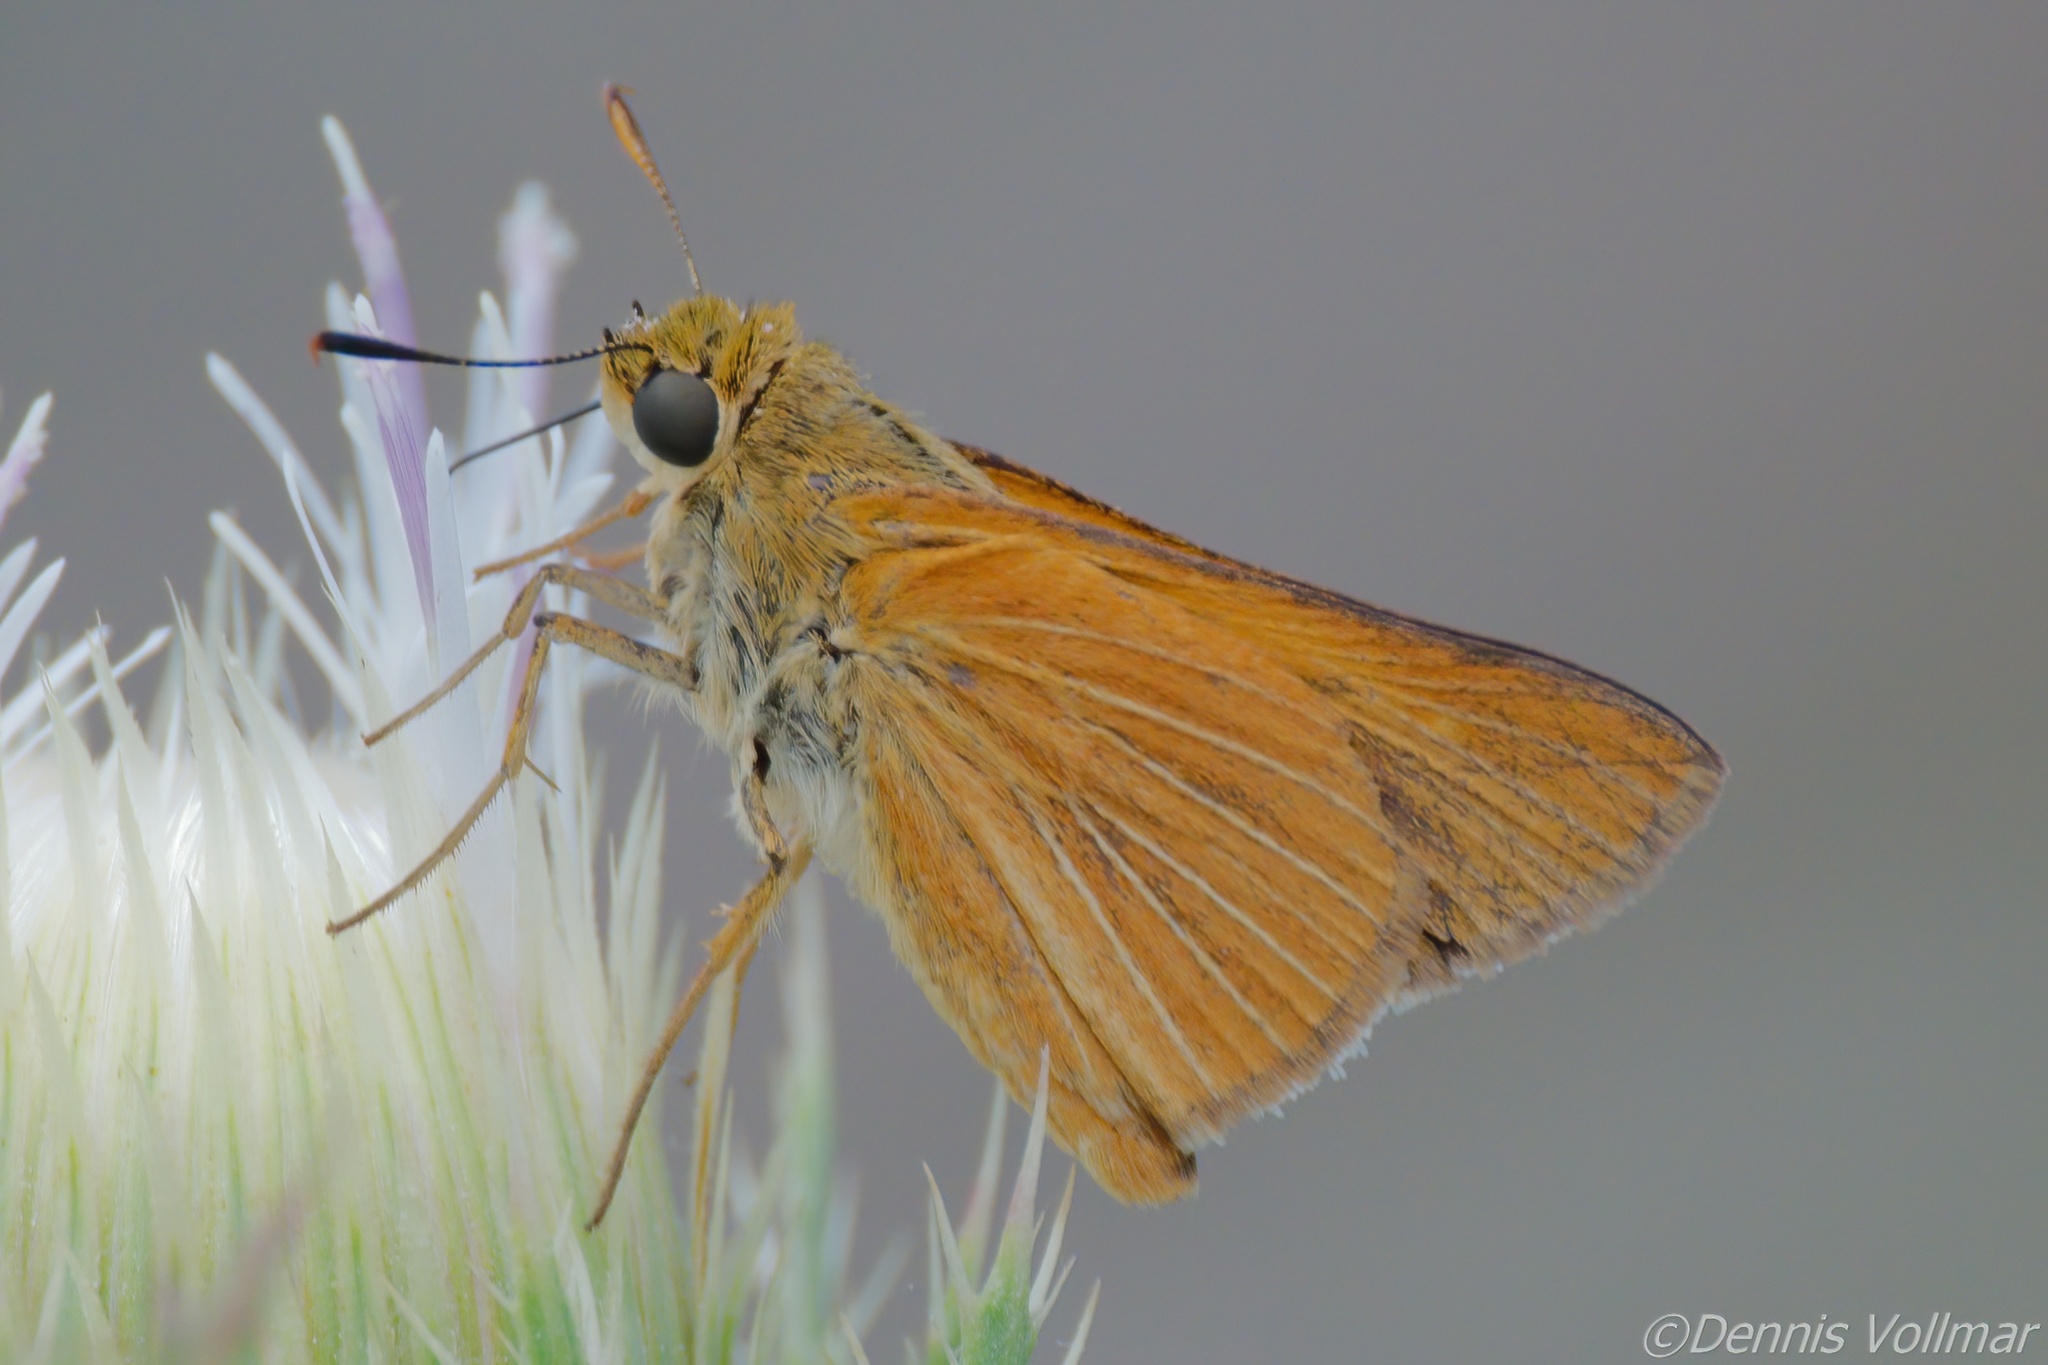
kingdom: Animalia
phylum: Arthropoda
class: Insecta
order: Lepidoptera
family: Hesperiidae
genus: Euphyes
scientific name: Euphyes berryi
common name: Berry's skipper
